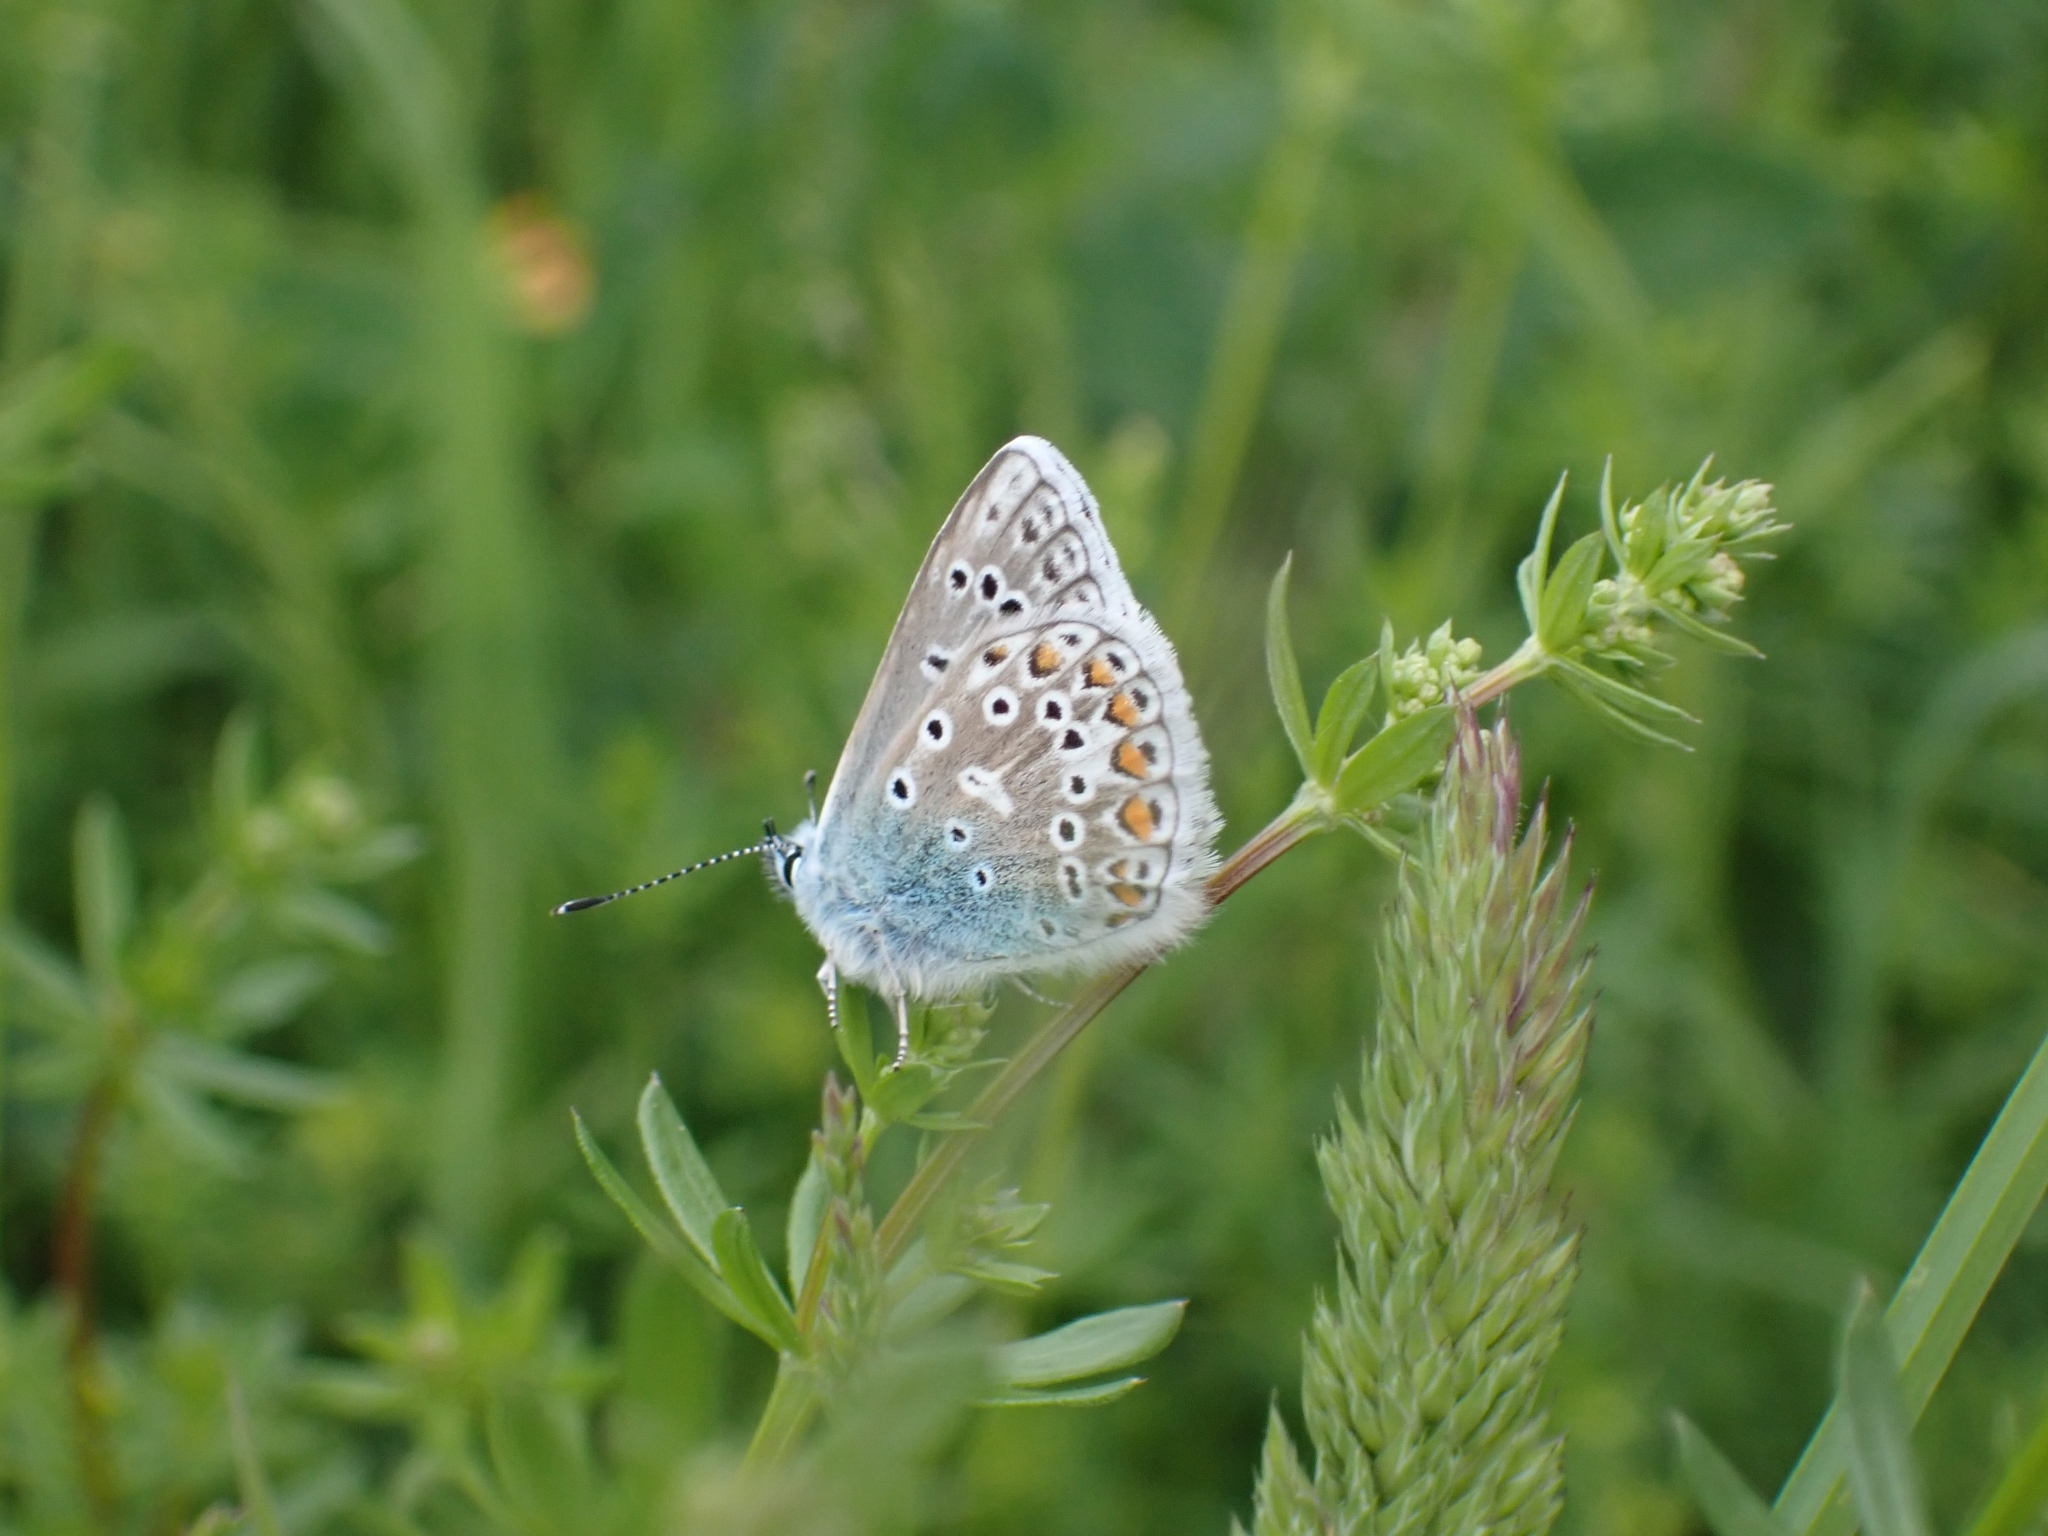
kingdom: Animalia
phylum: Arthropoda
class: Insecta
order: Lepidoptera
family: Lycaenidae
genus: Polyommatus
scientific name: Polyommatus icarus
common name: Common blue
